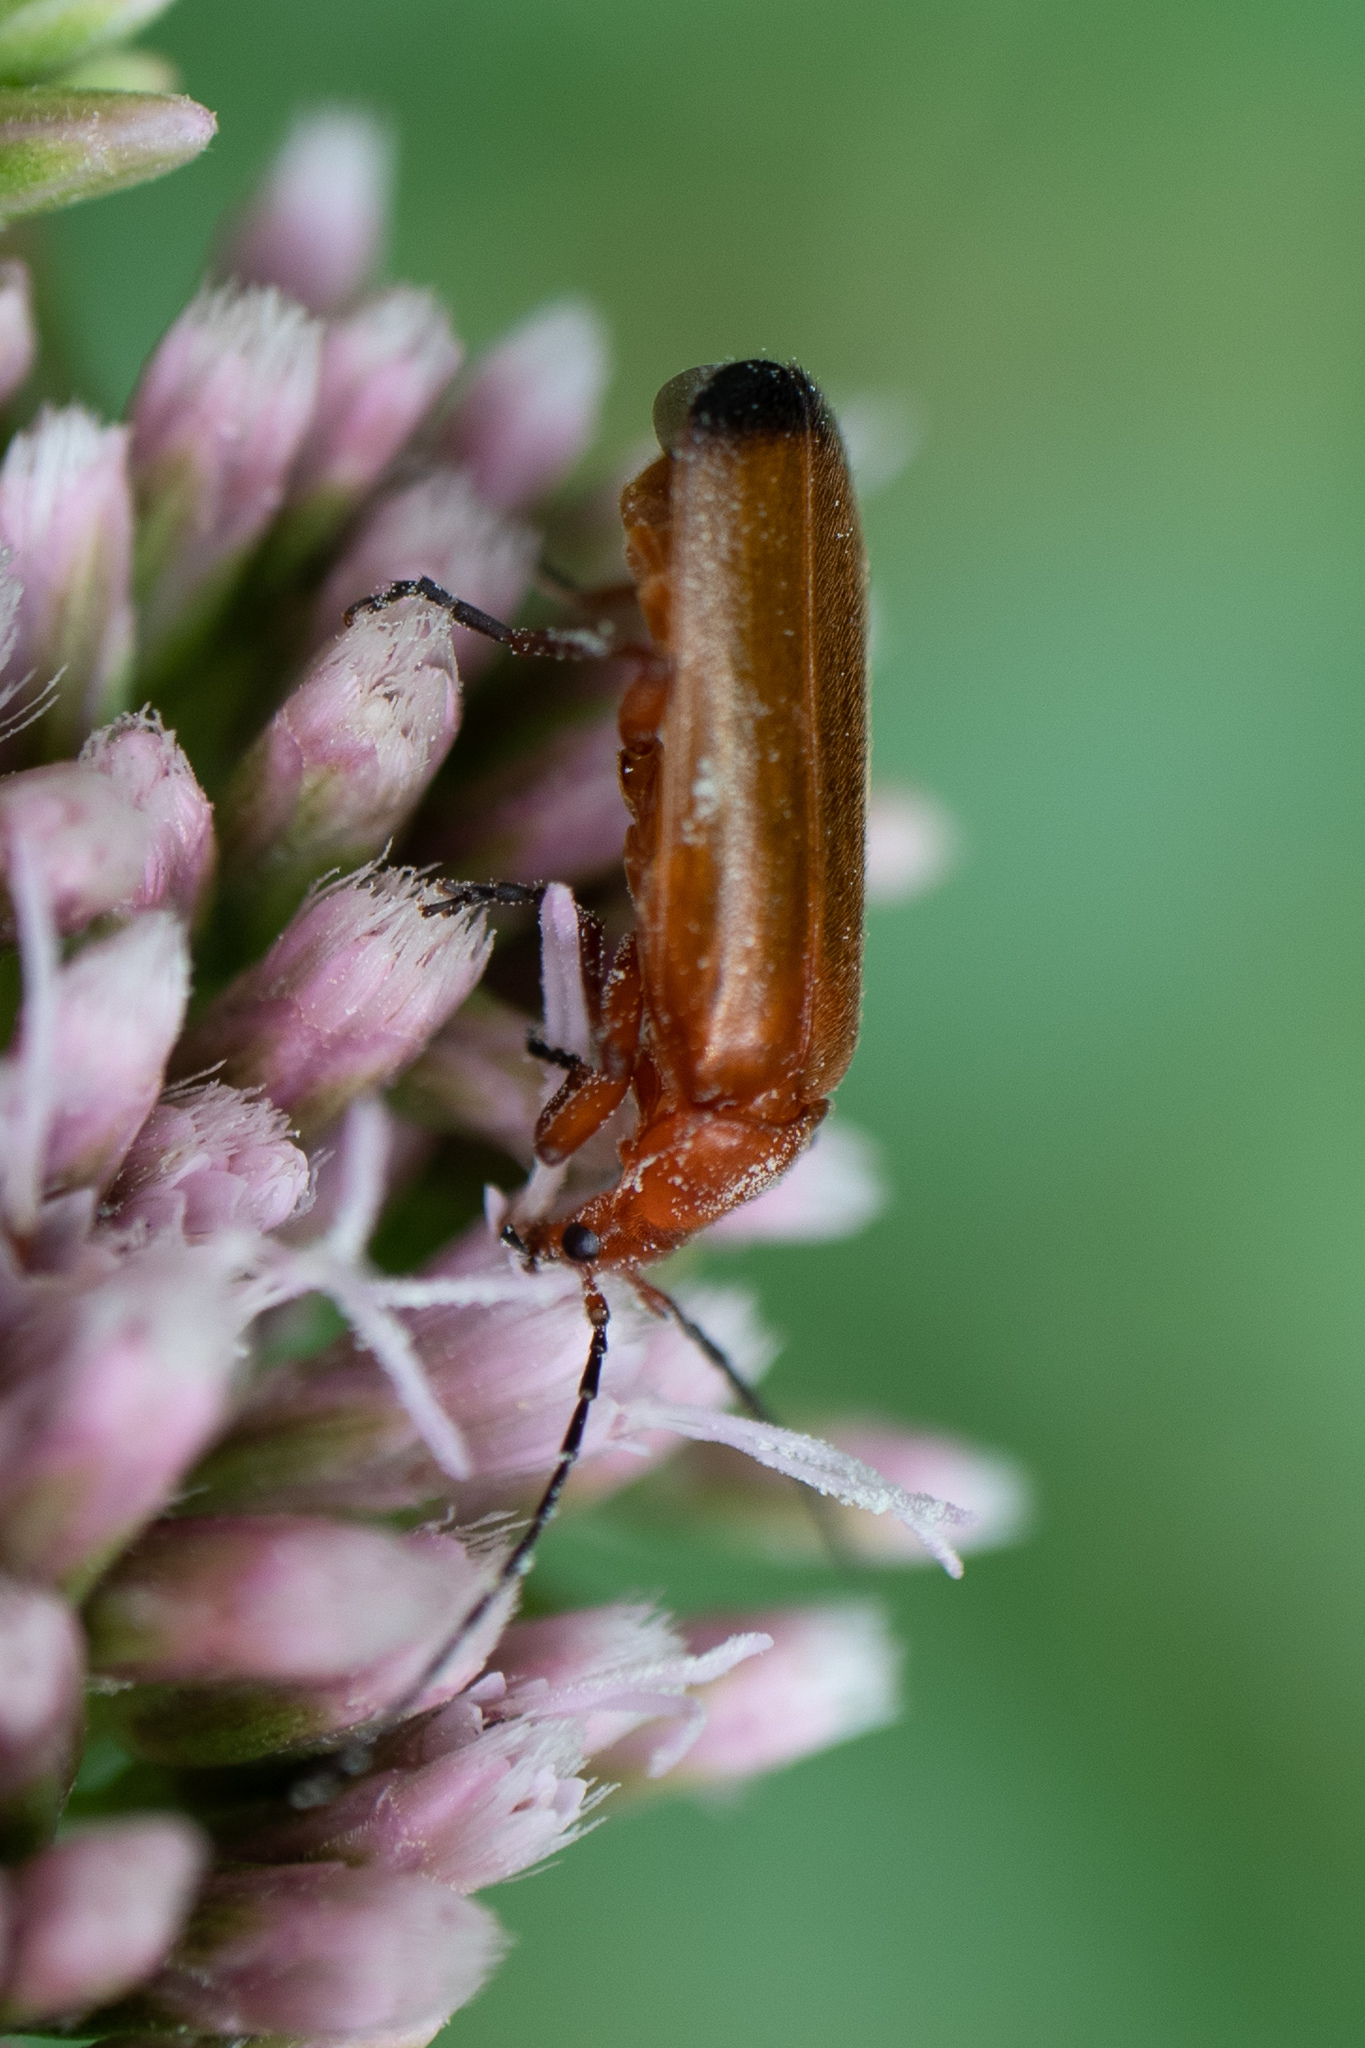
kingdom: Animalia
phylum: Arthropoda
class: Insecta
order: Coleoptera
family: Cantharidae
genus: Rhagonycha
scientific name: Rhagonycha fulva
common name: Common red soldier beetle
